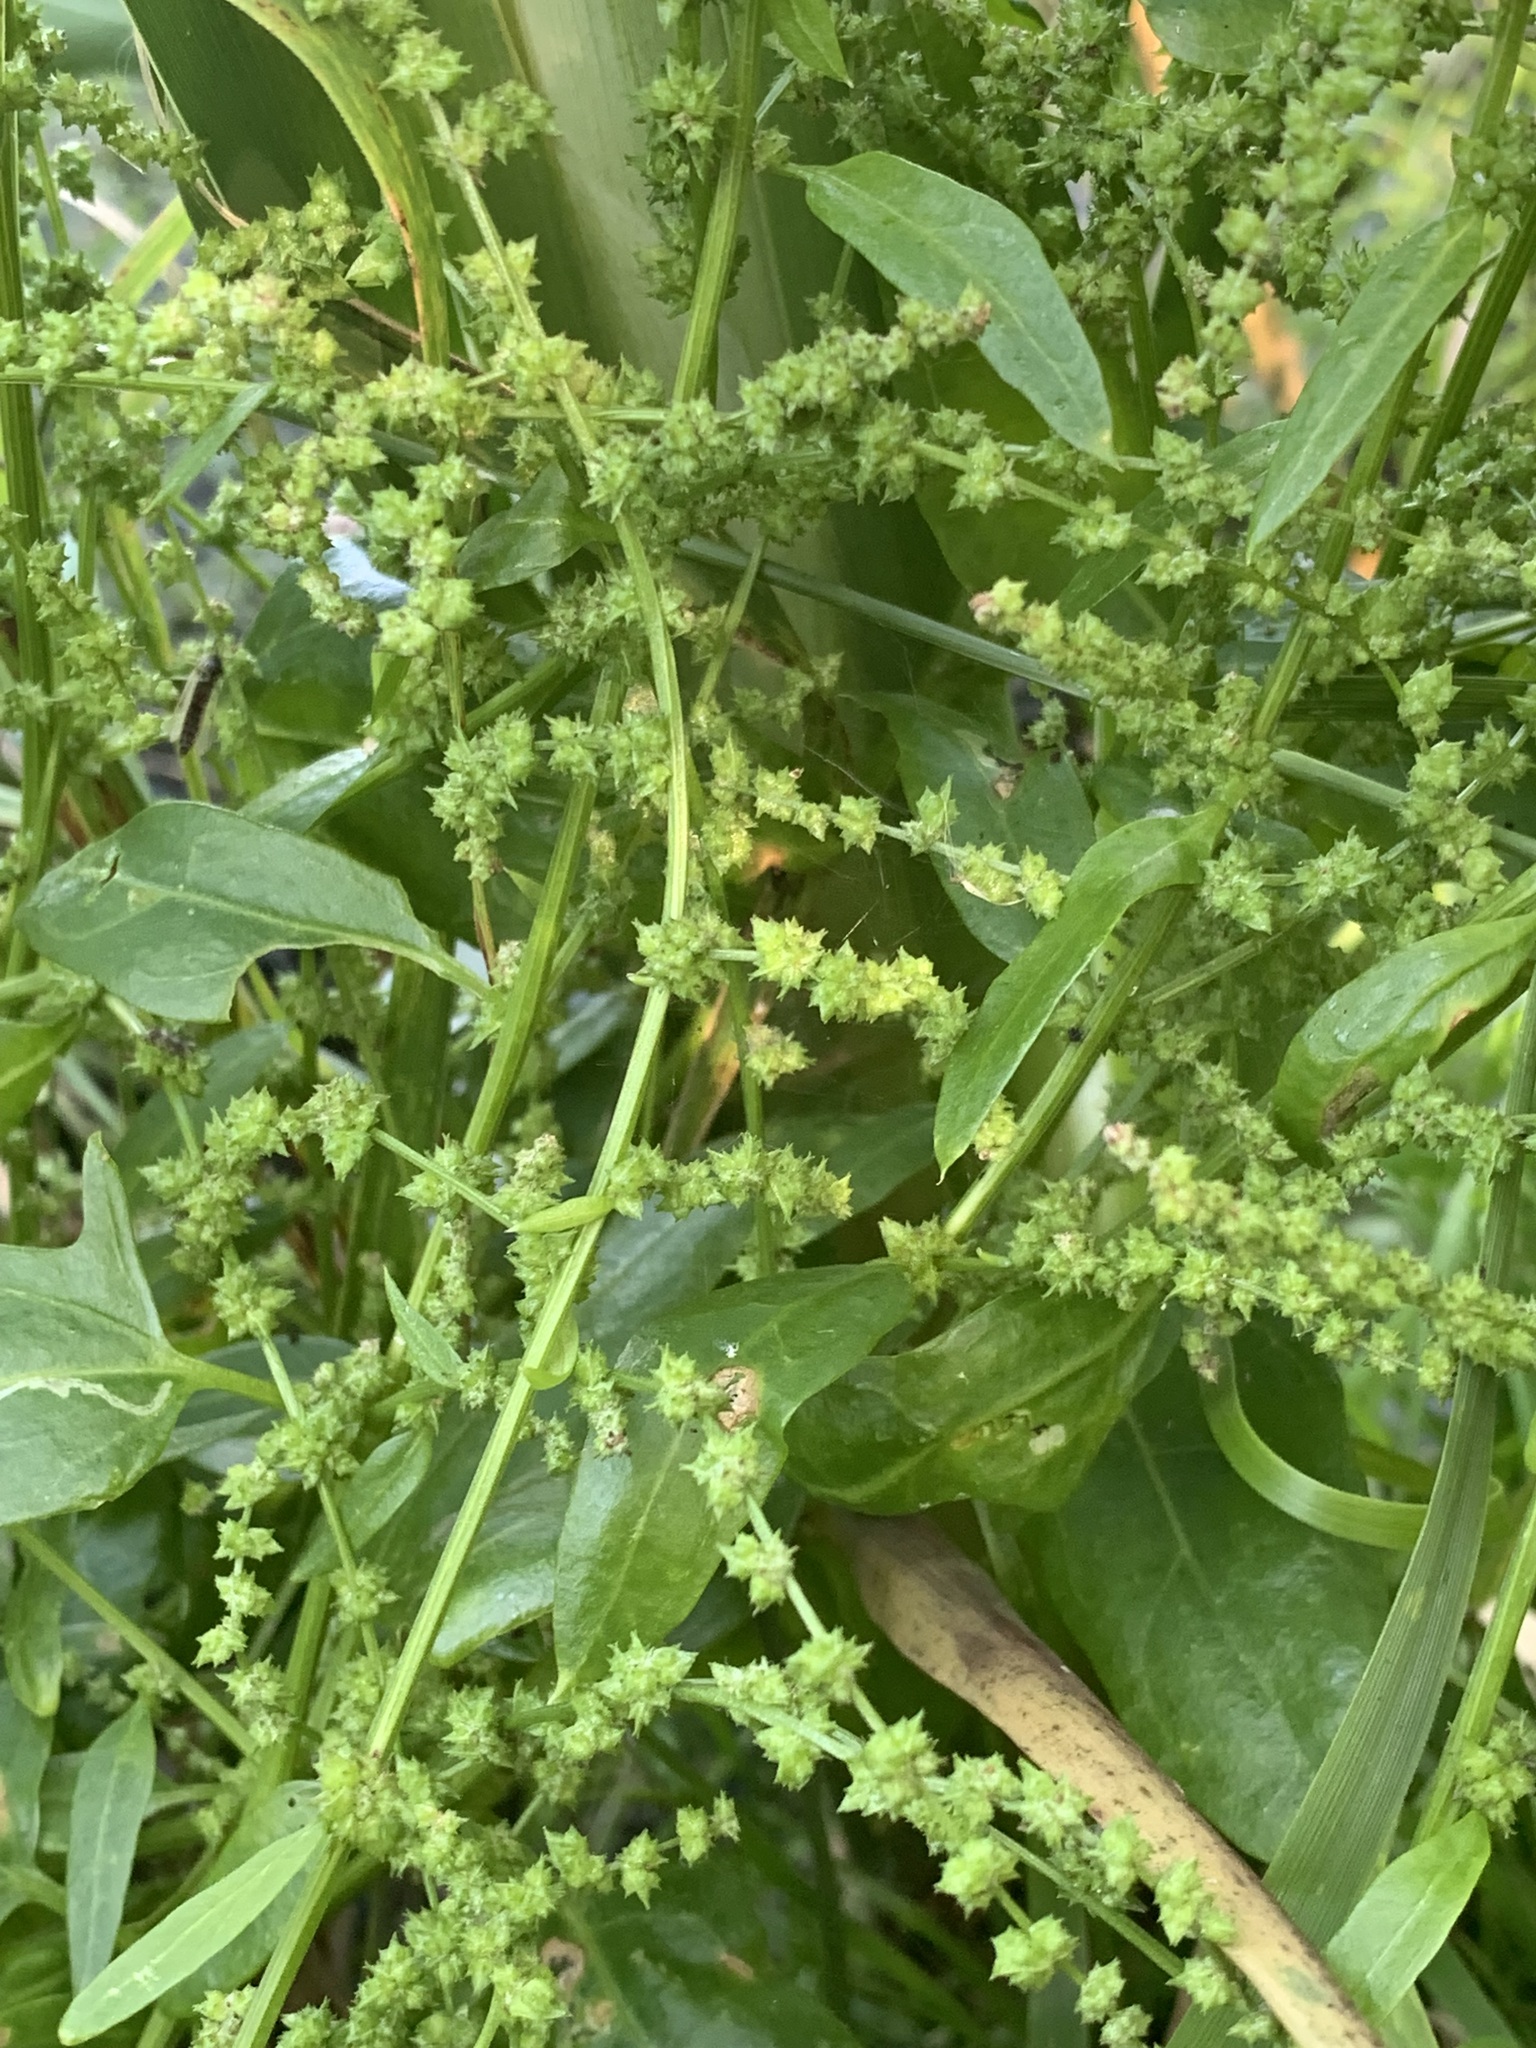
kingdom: Plantae
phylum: Tracheophyta
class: Magnoliopsida
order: Caryophyllales
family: Amaranthaceae
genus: Atriplex
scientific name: Atriplex patula
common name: Common orache
